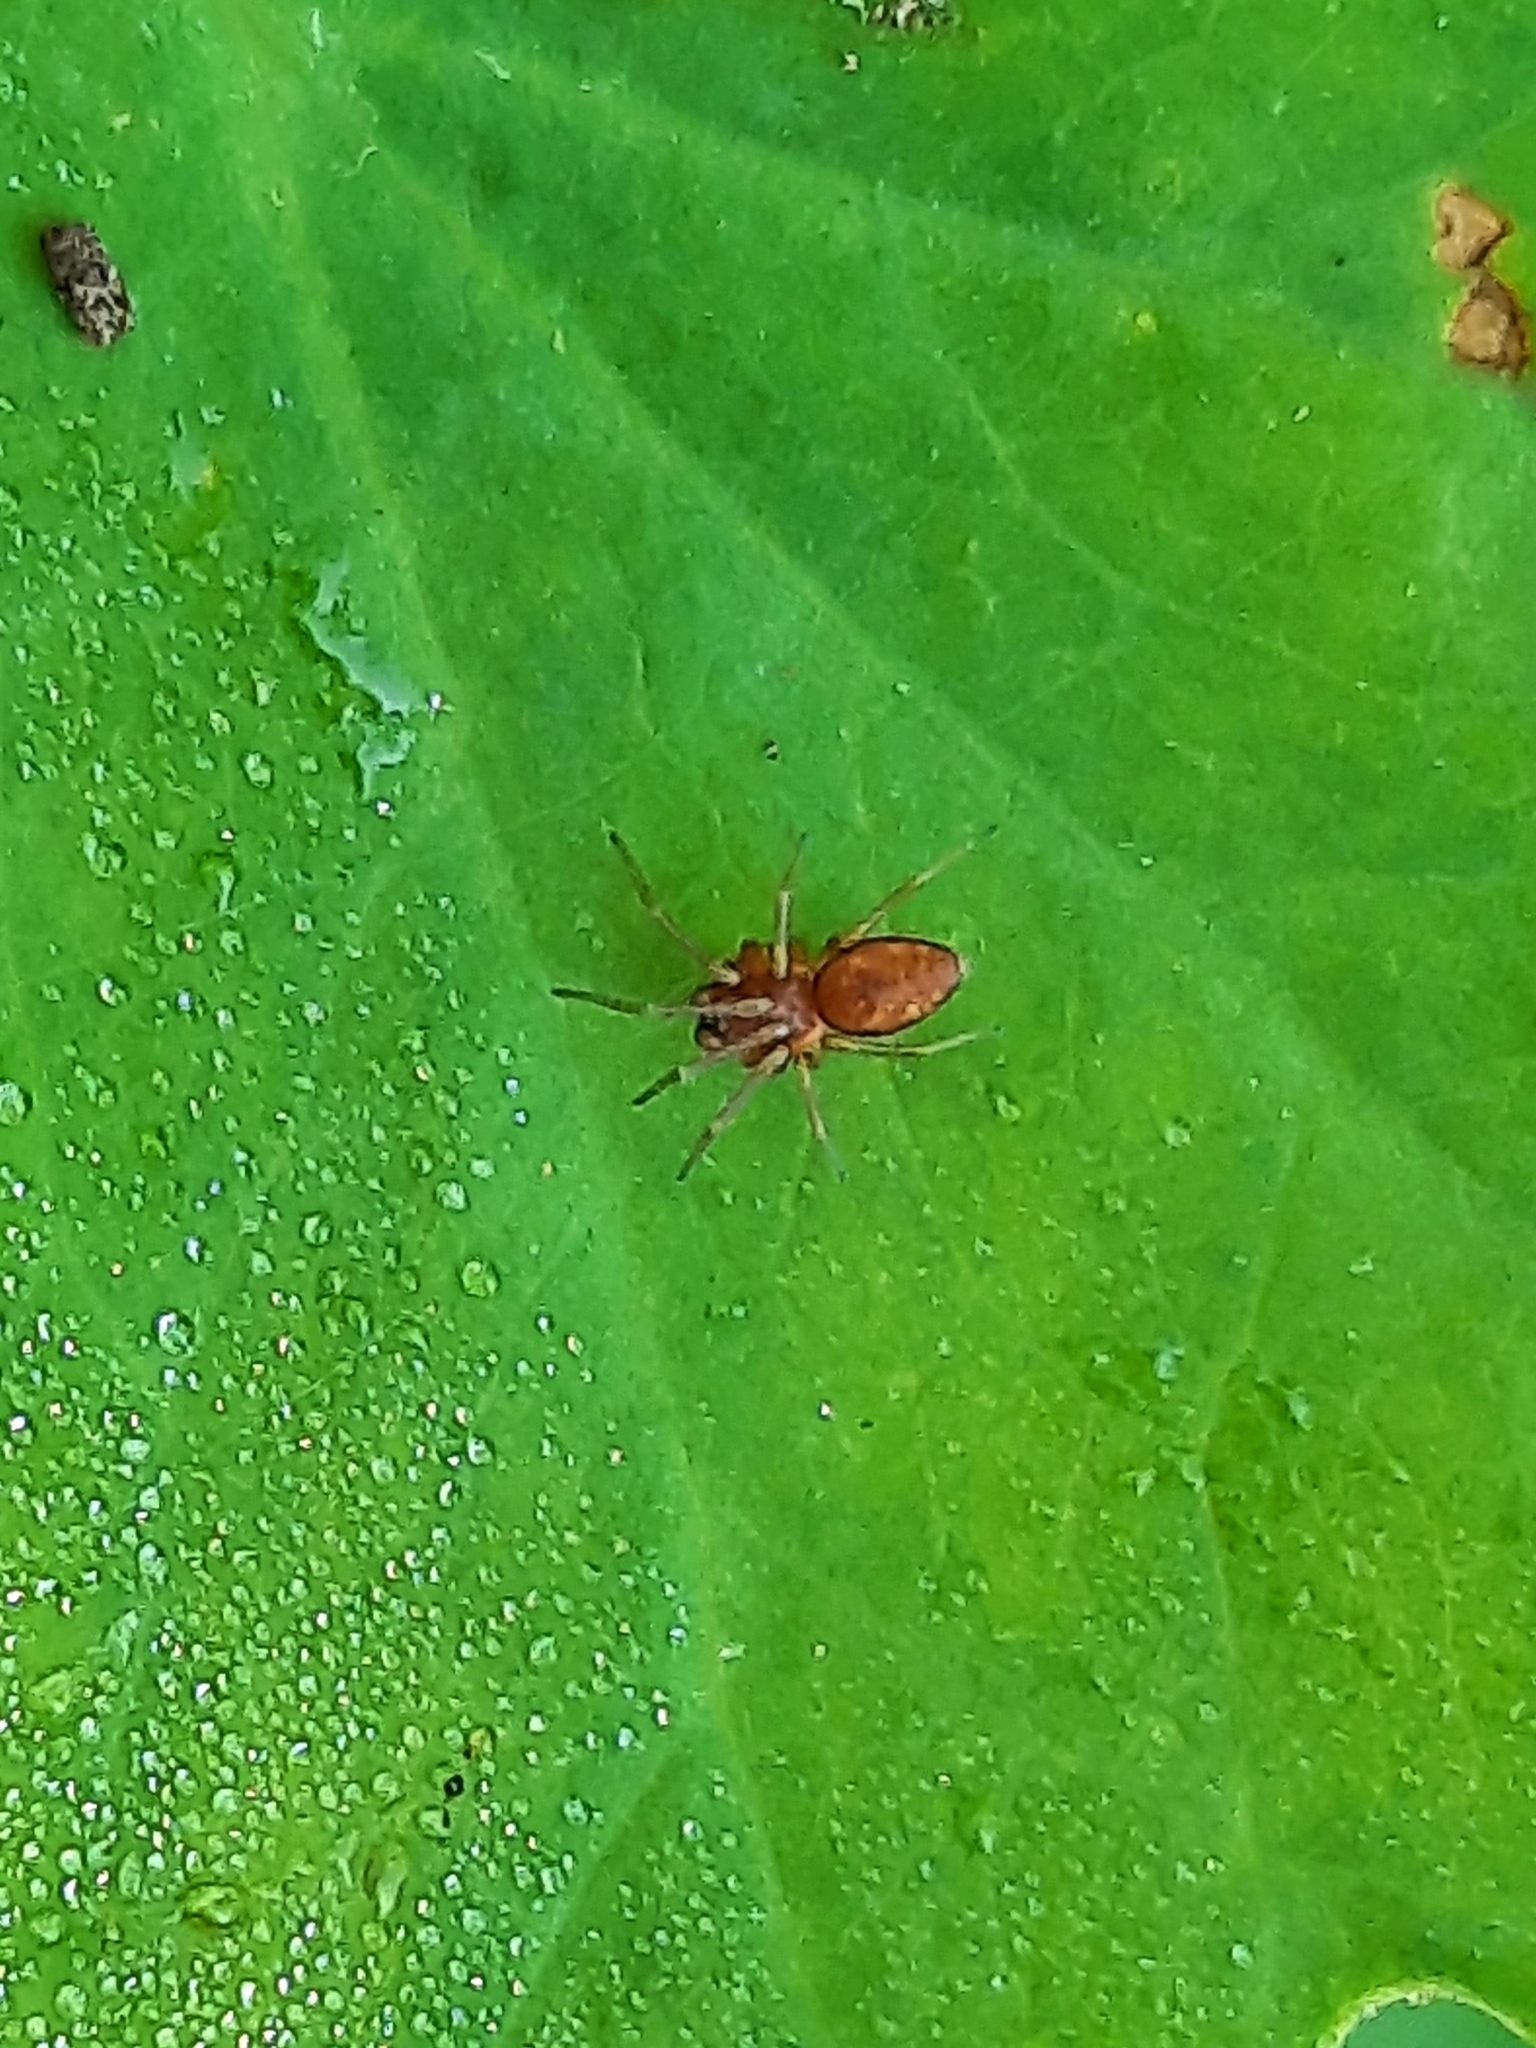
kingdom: Animalia
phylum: Arthropoda
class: Arachnida
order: Araneae
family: Dictynidae
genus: Nigma
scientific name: Nigma
